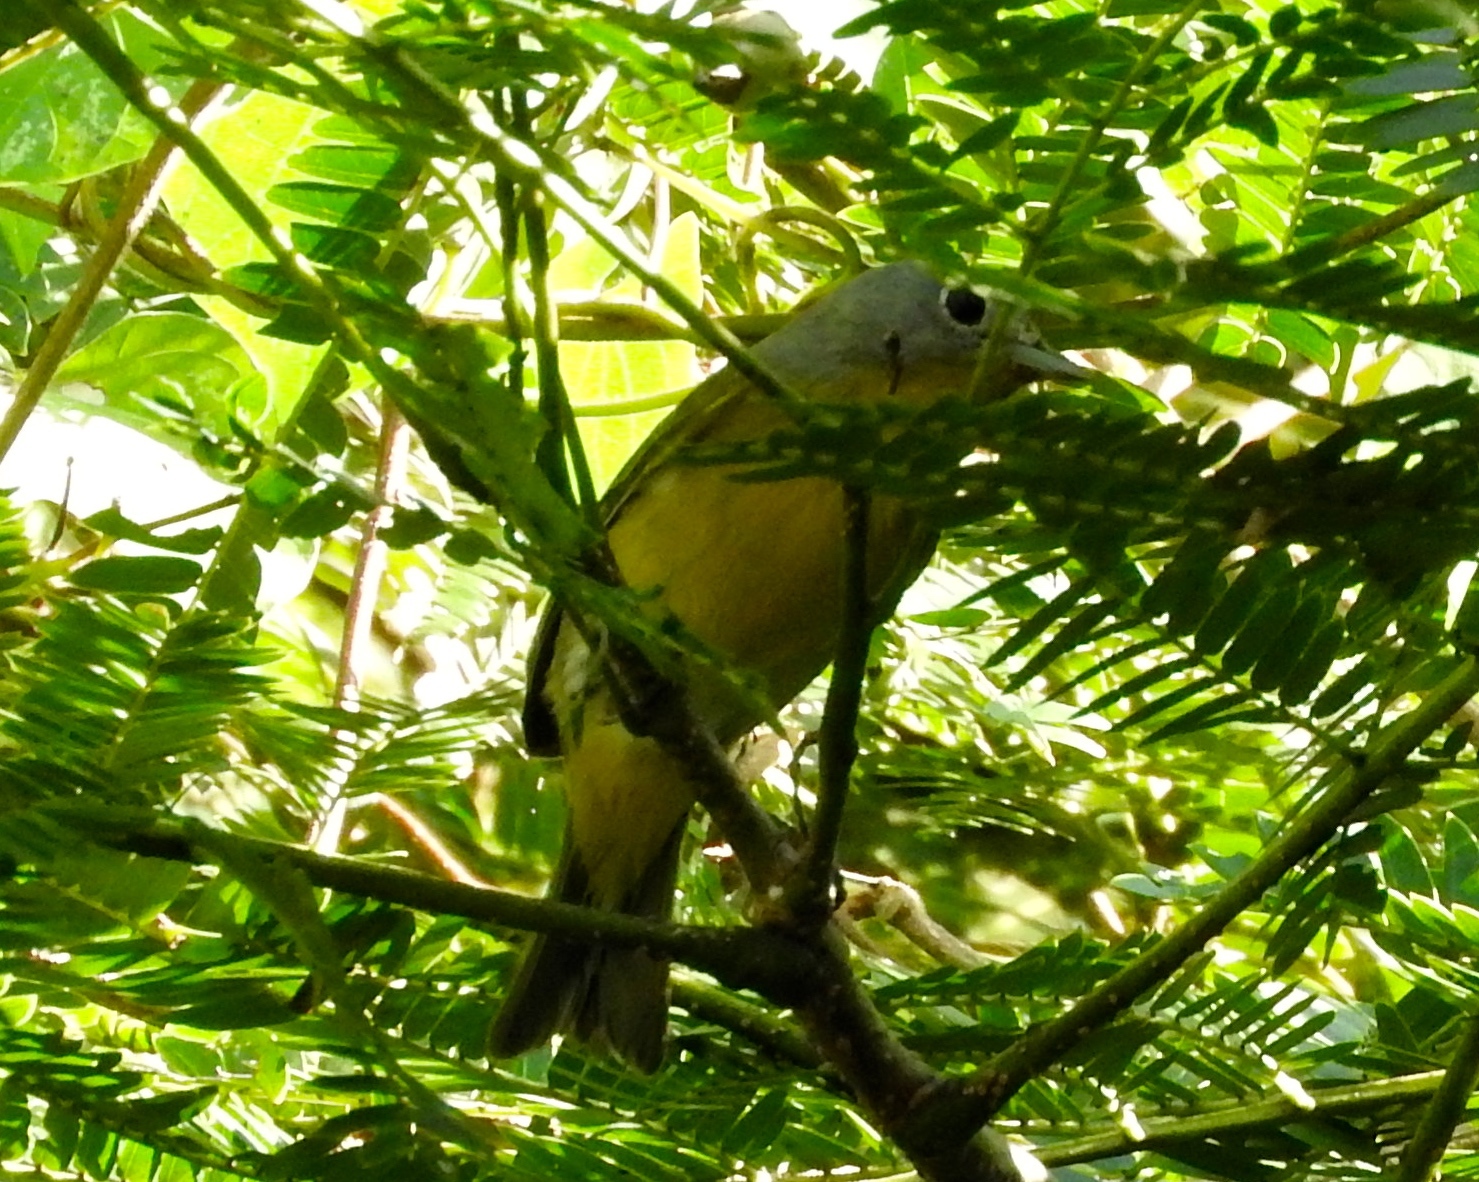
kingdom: Animalia
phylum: Chordata
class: Aves
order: Passeriformes
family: Parulidae
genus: Leiothlypis
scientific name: Leiothlypis ruficapilla
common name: Nashville warbler
